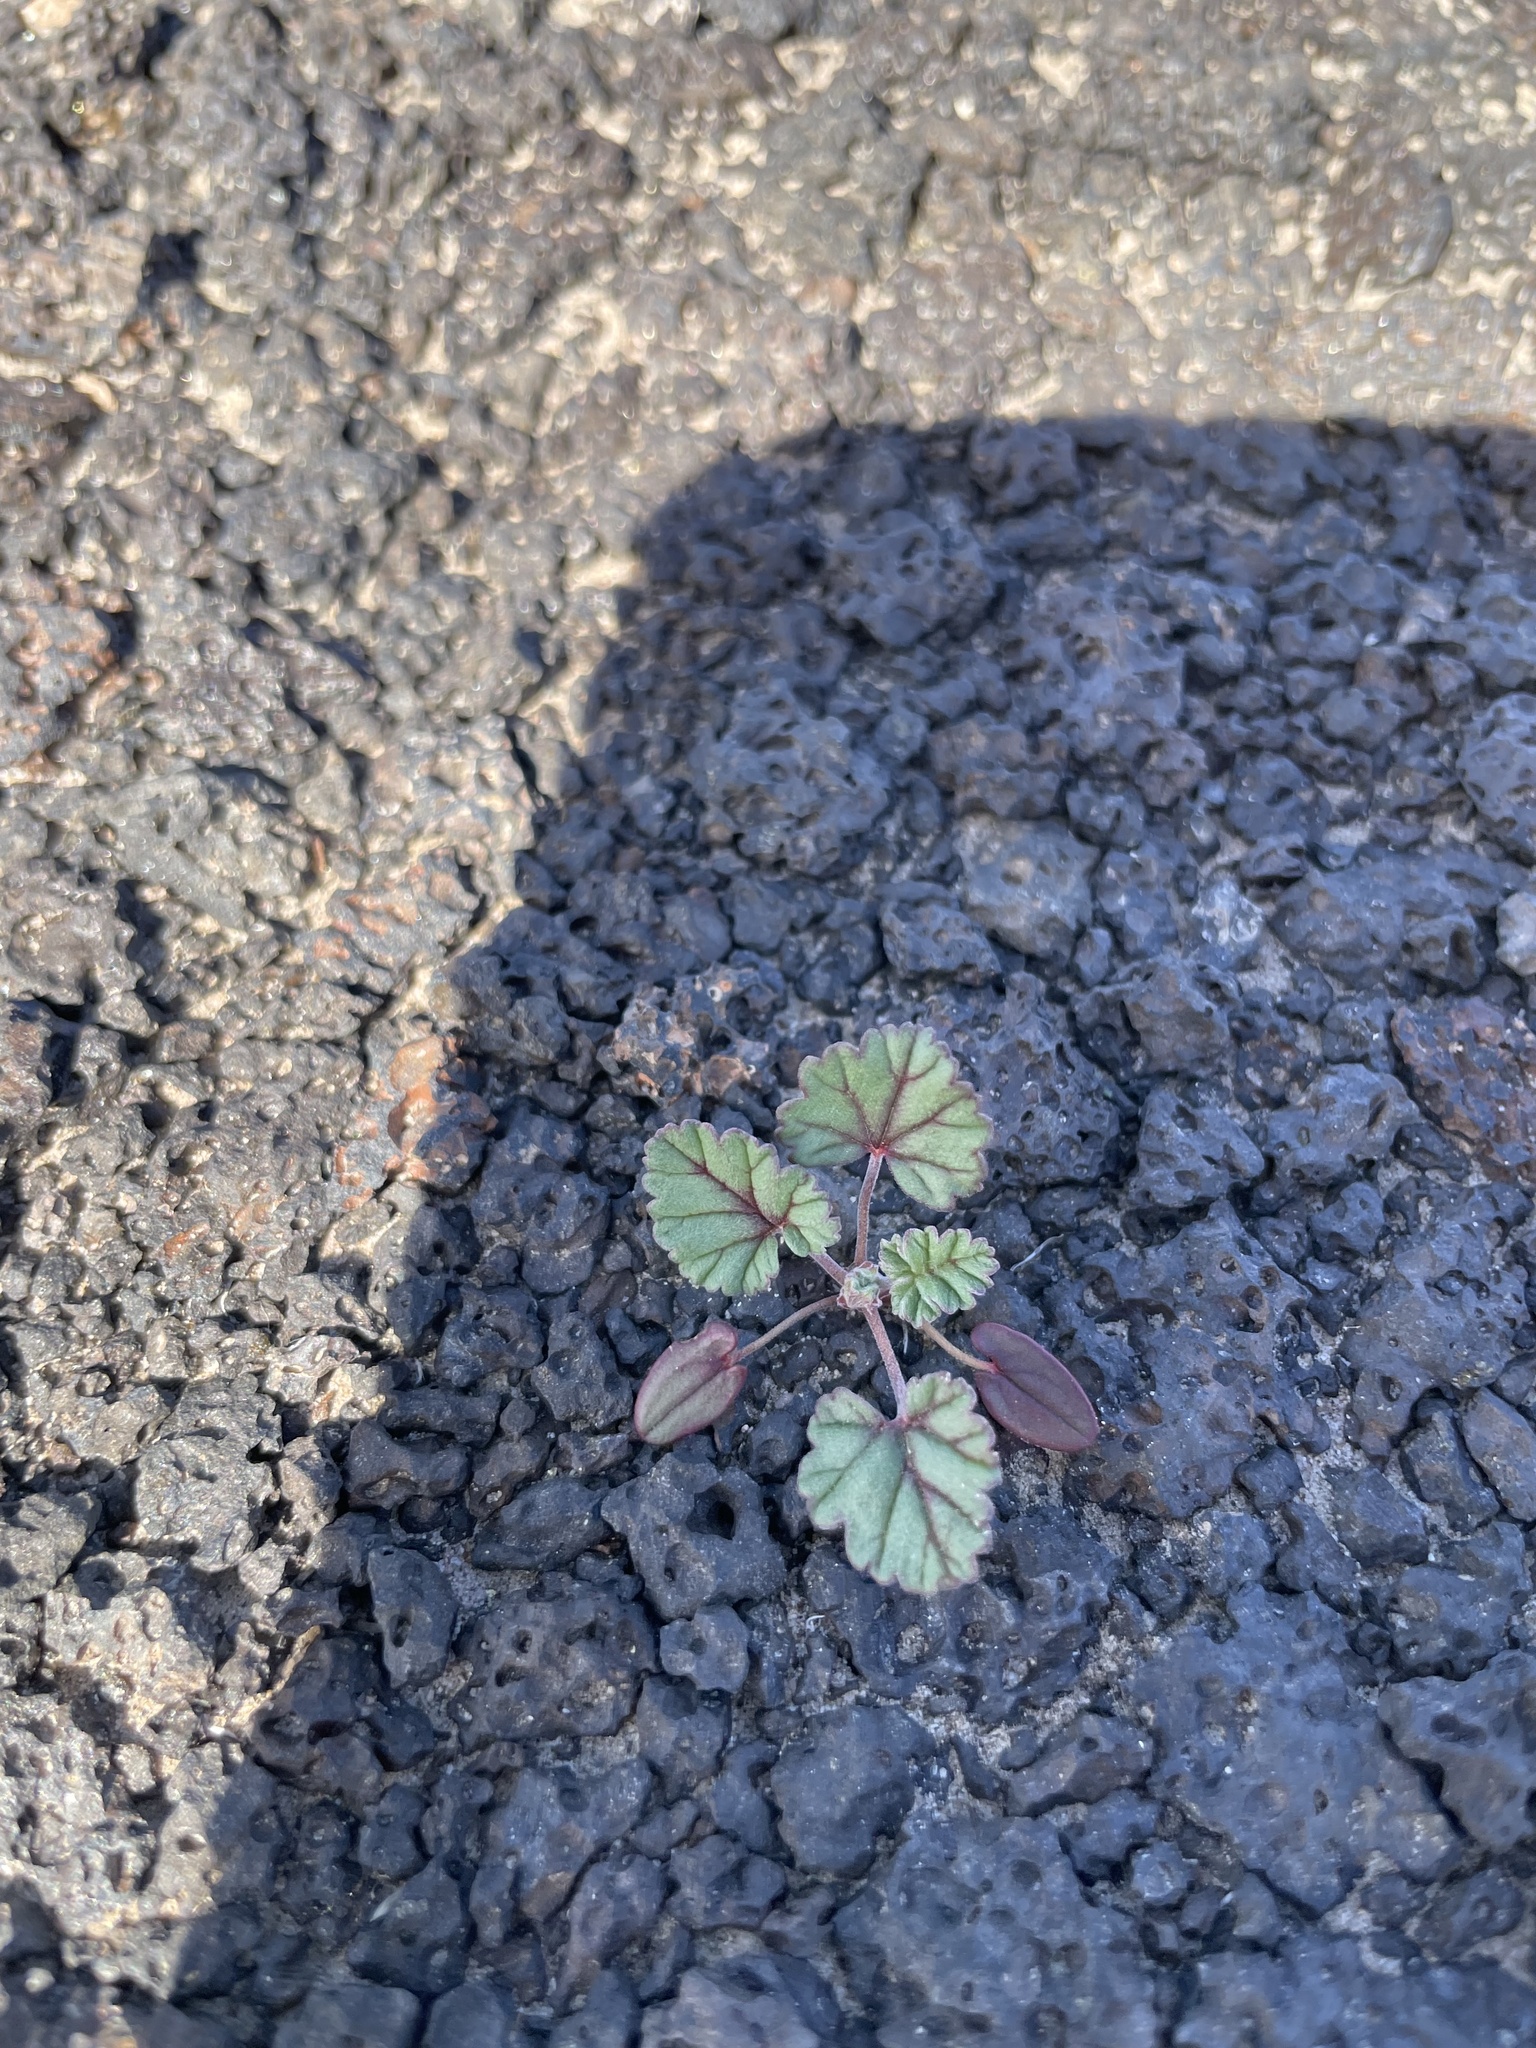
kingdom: Plantae
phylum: Tracheophyta
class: Magnoliopsida
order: Geraniales
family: Geraniaceae
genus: Erodium
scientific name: Erodium texanum
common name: Texas stork's-bill
